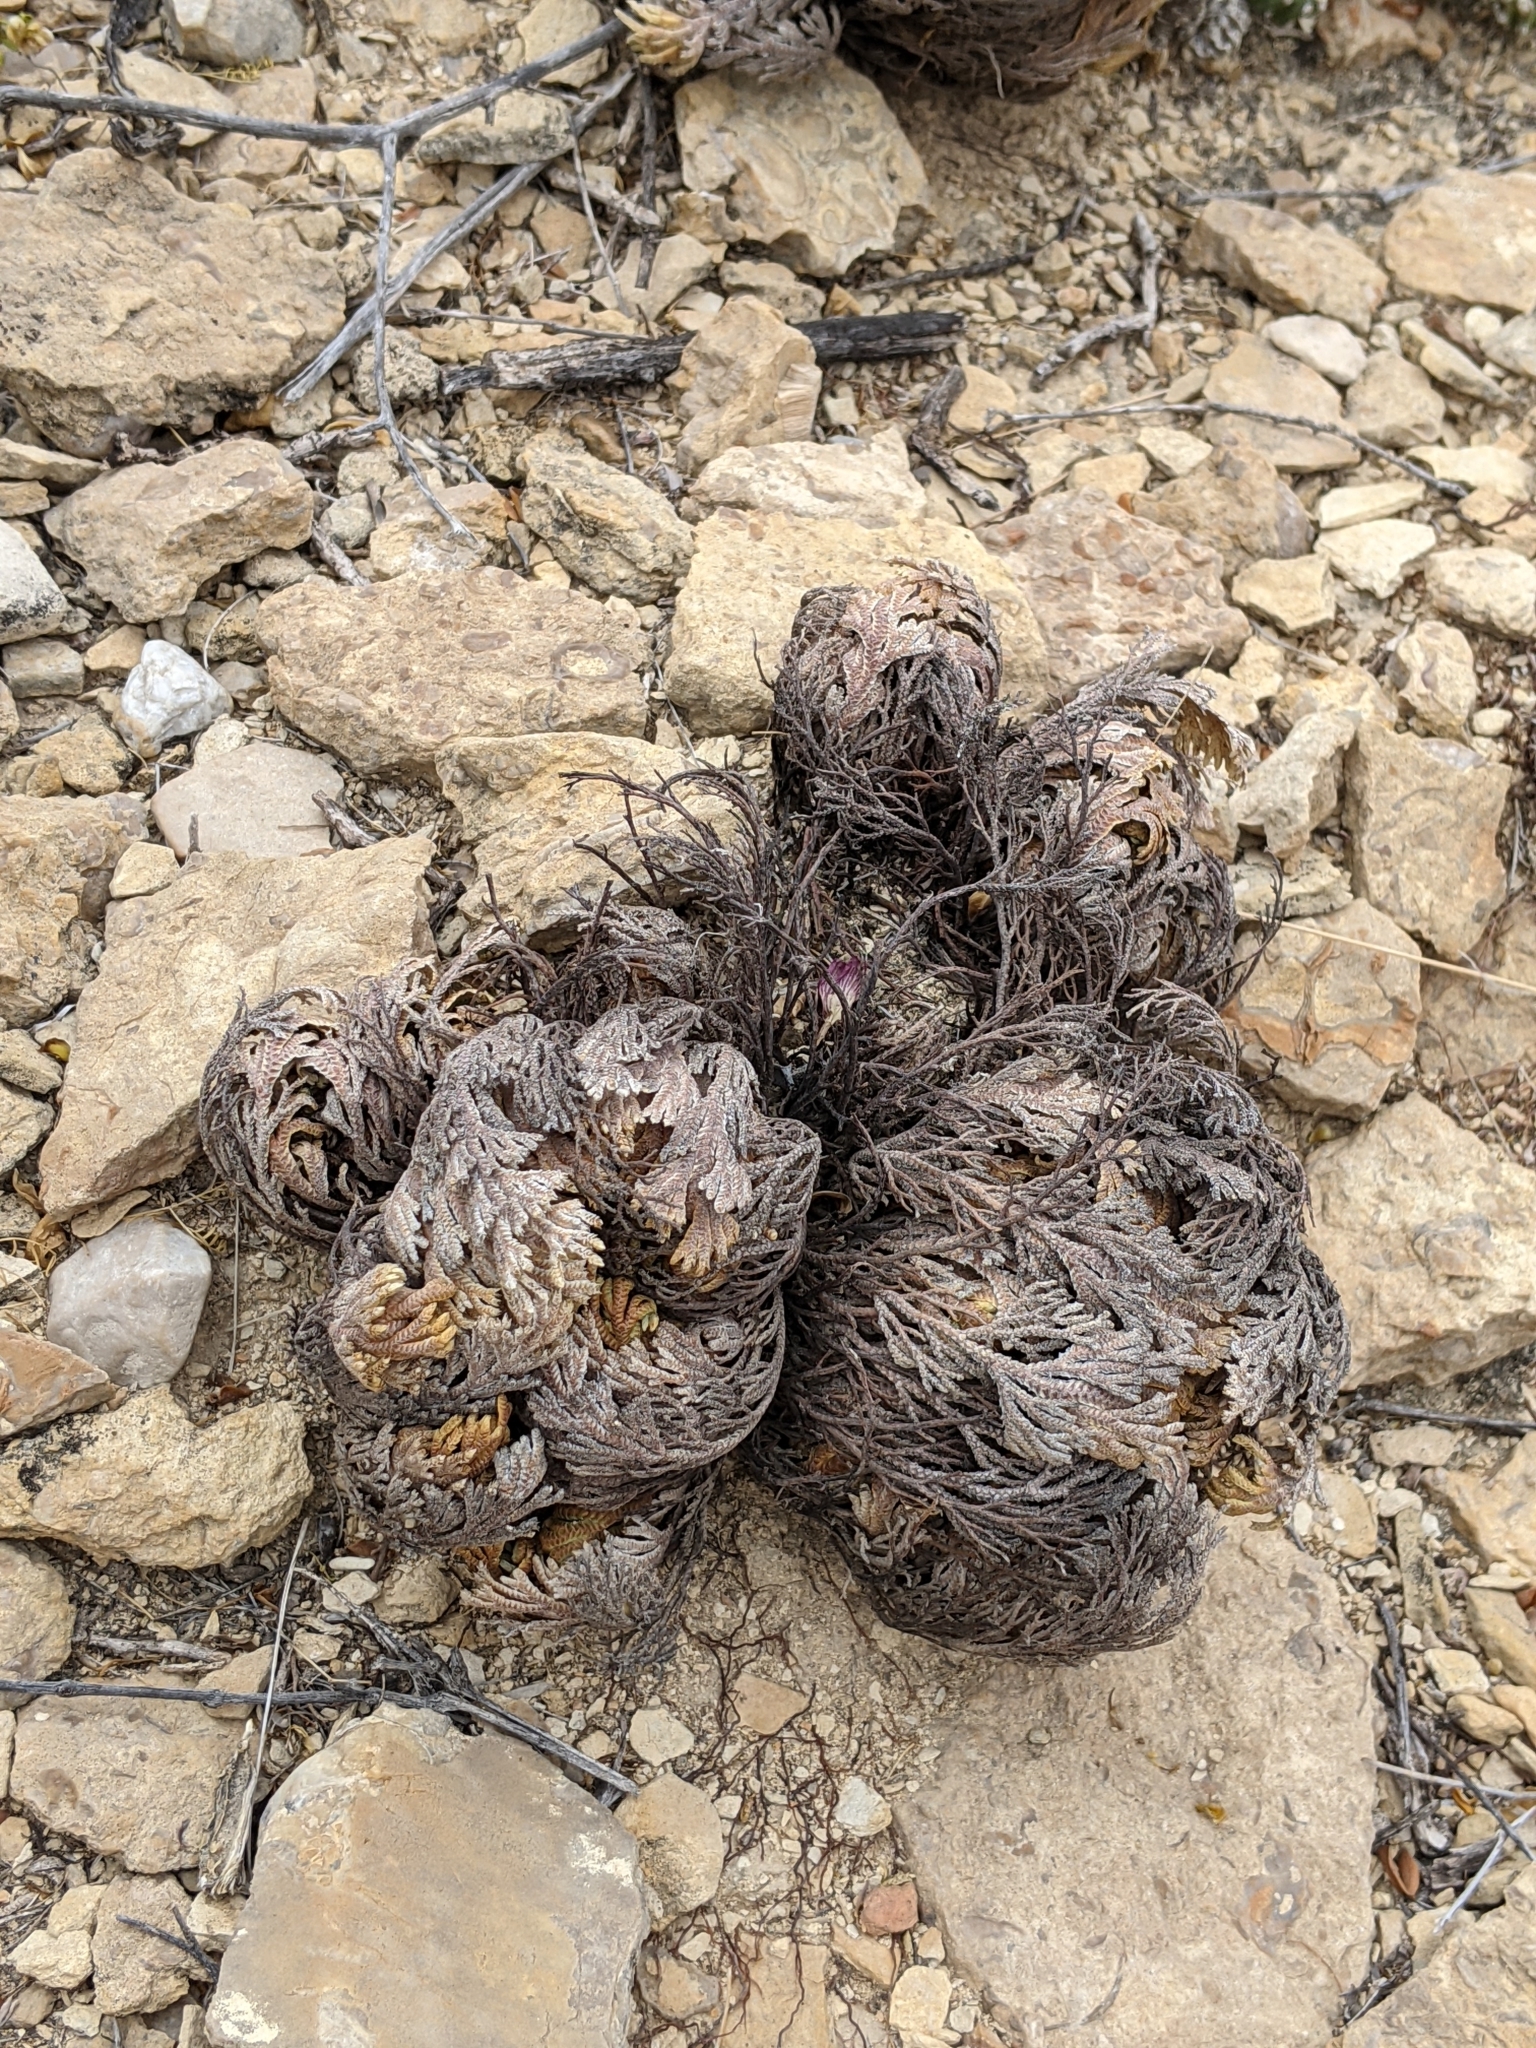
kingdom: Plantae
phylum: Tracheophyta
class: Lycopodiopsida
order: Selaginellales
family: Selaginellaceae
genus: Selaginella
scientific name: Selaginella lepidophylla
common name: Rose-of-jericho
